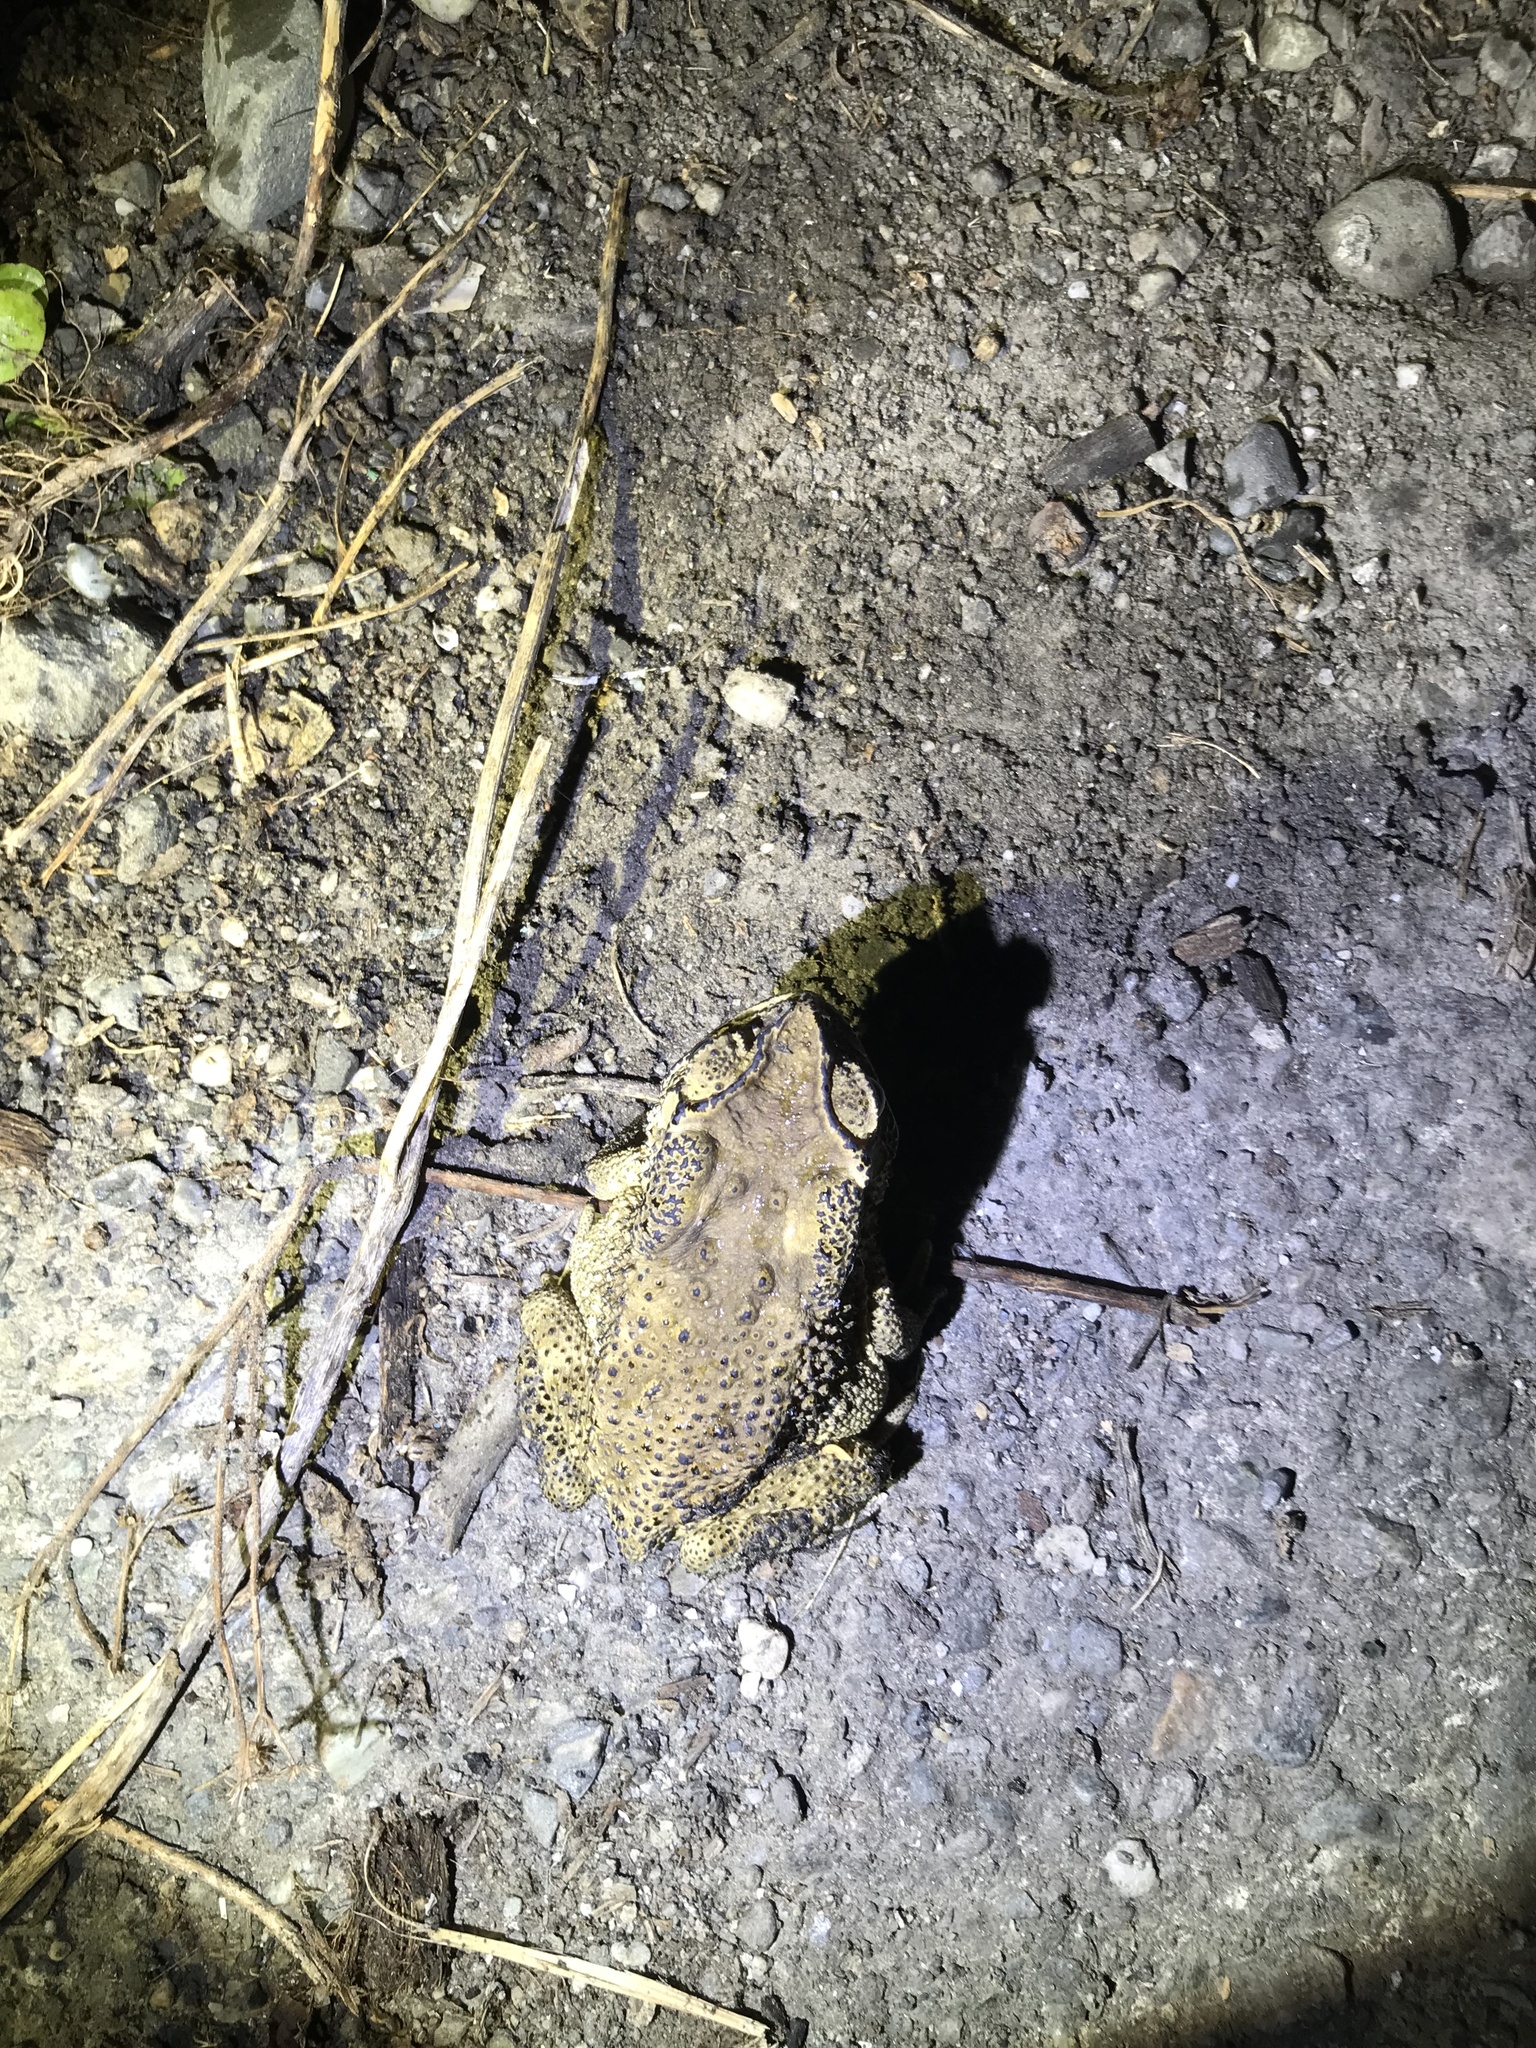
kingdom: Animalia
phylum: Chordata
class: Amphibia
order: Anura
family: Bufonidae
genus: Duttaphrynus
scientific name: Duttaphrynus melanostictus
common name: Common sunda toad
